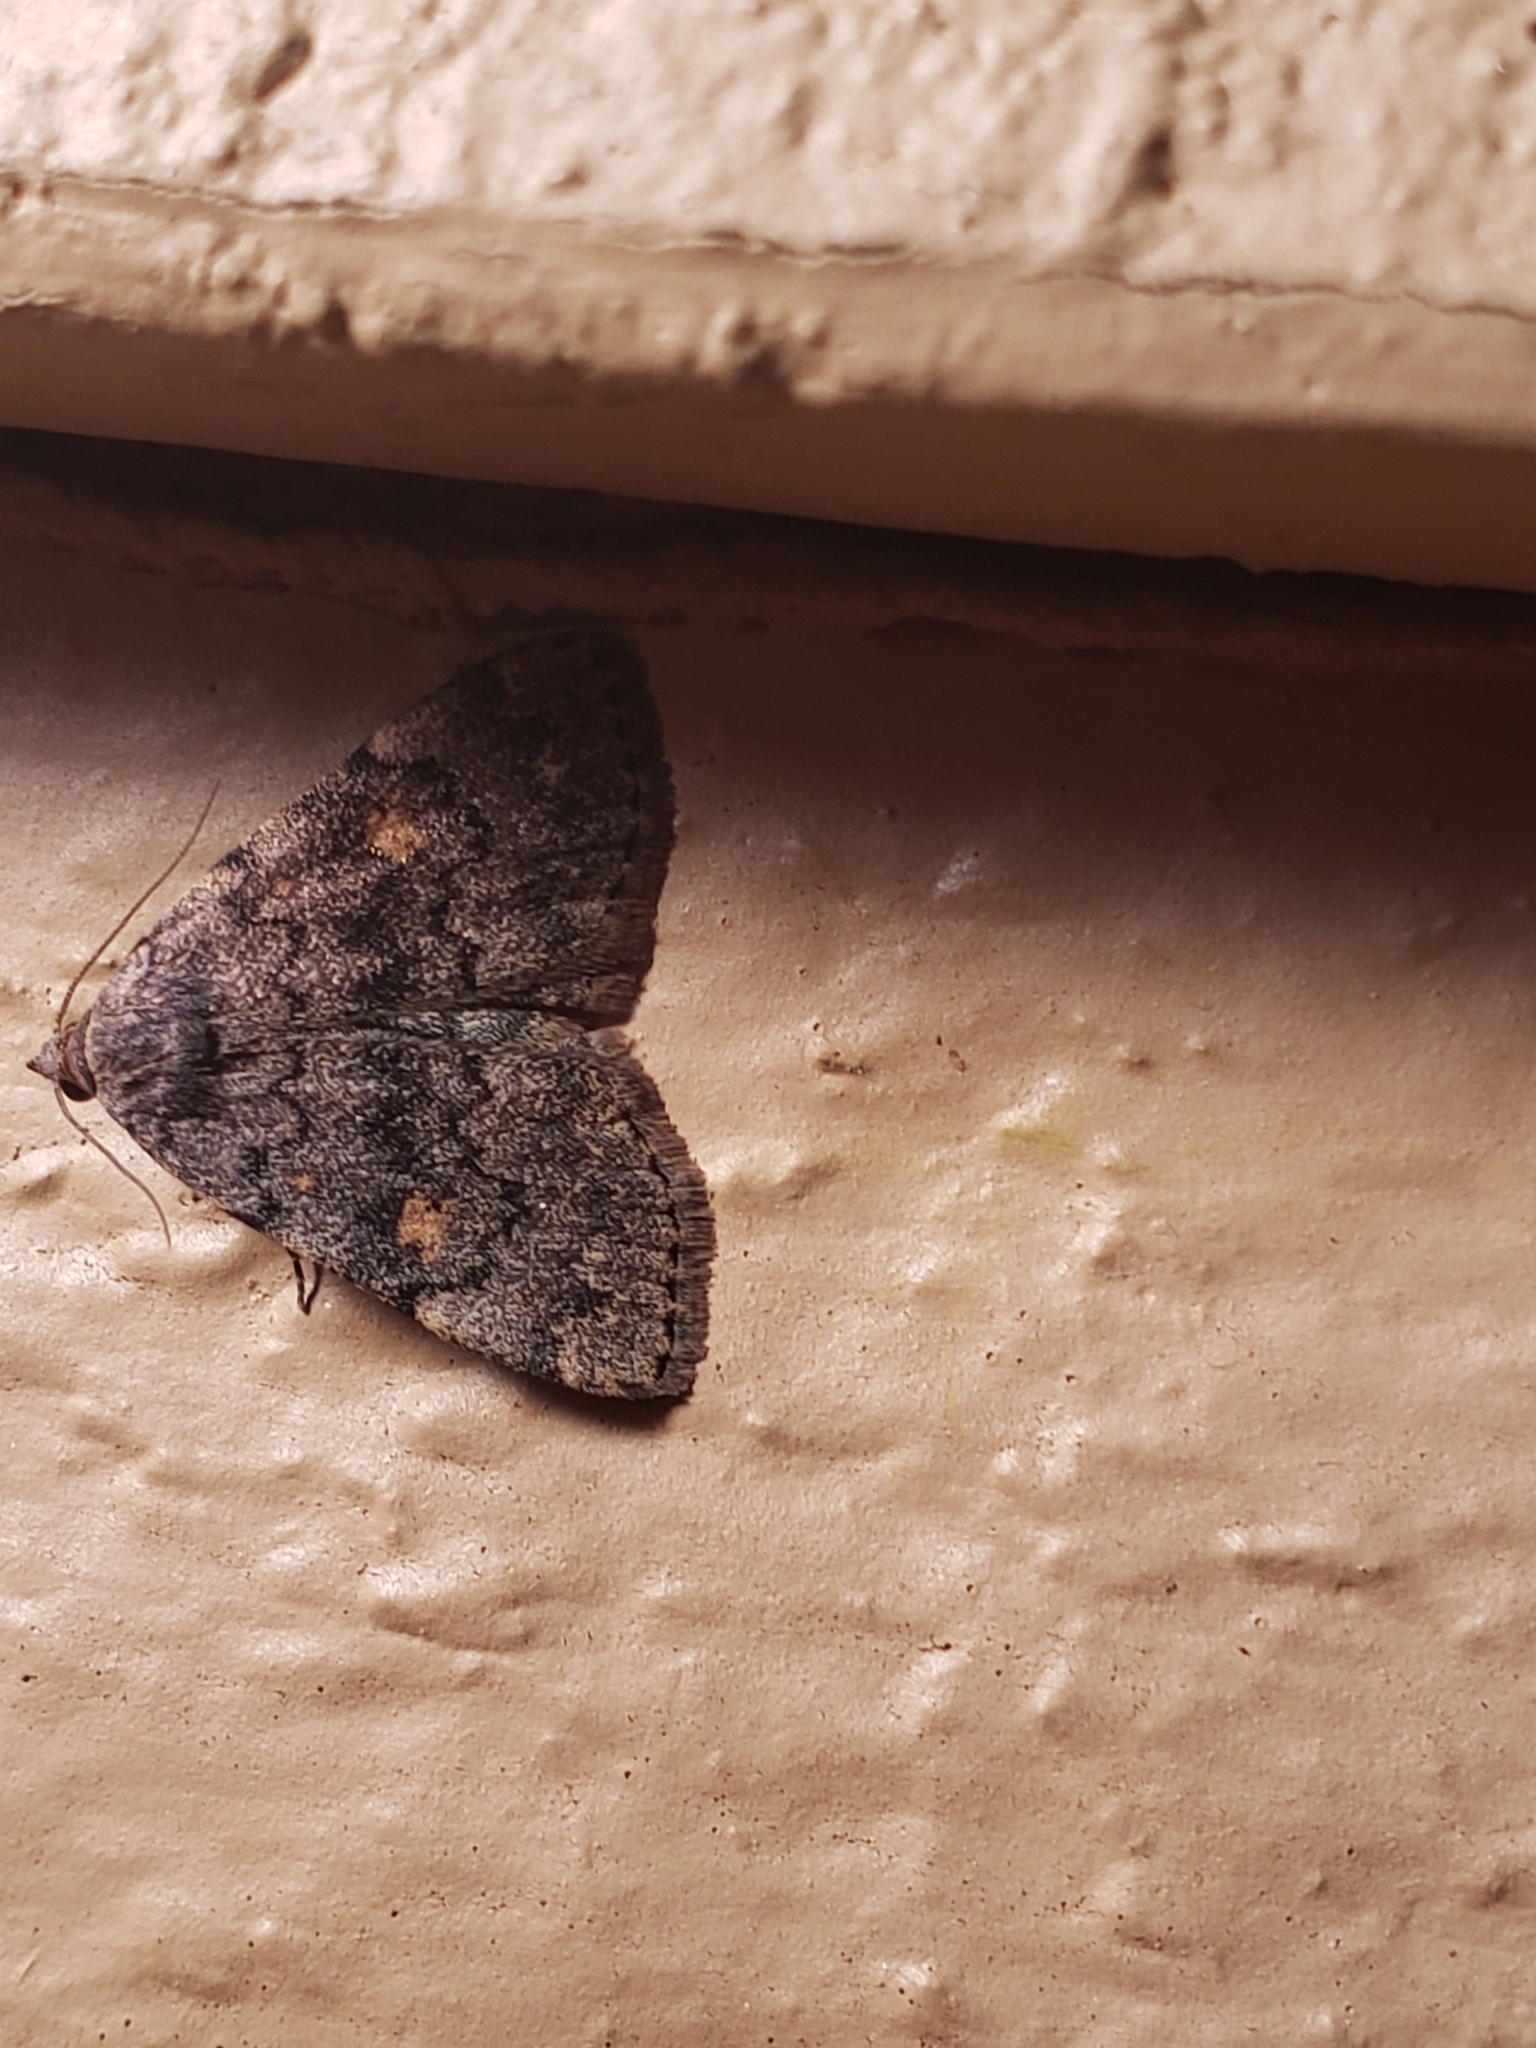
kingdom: Animalia
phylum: Arthropoda
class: Insecta
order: Lepidoptera
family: Erebidae
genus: Idia
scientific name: Idia aemula
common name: Common idia moth
